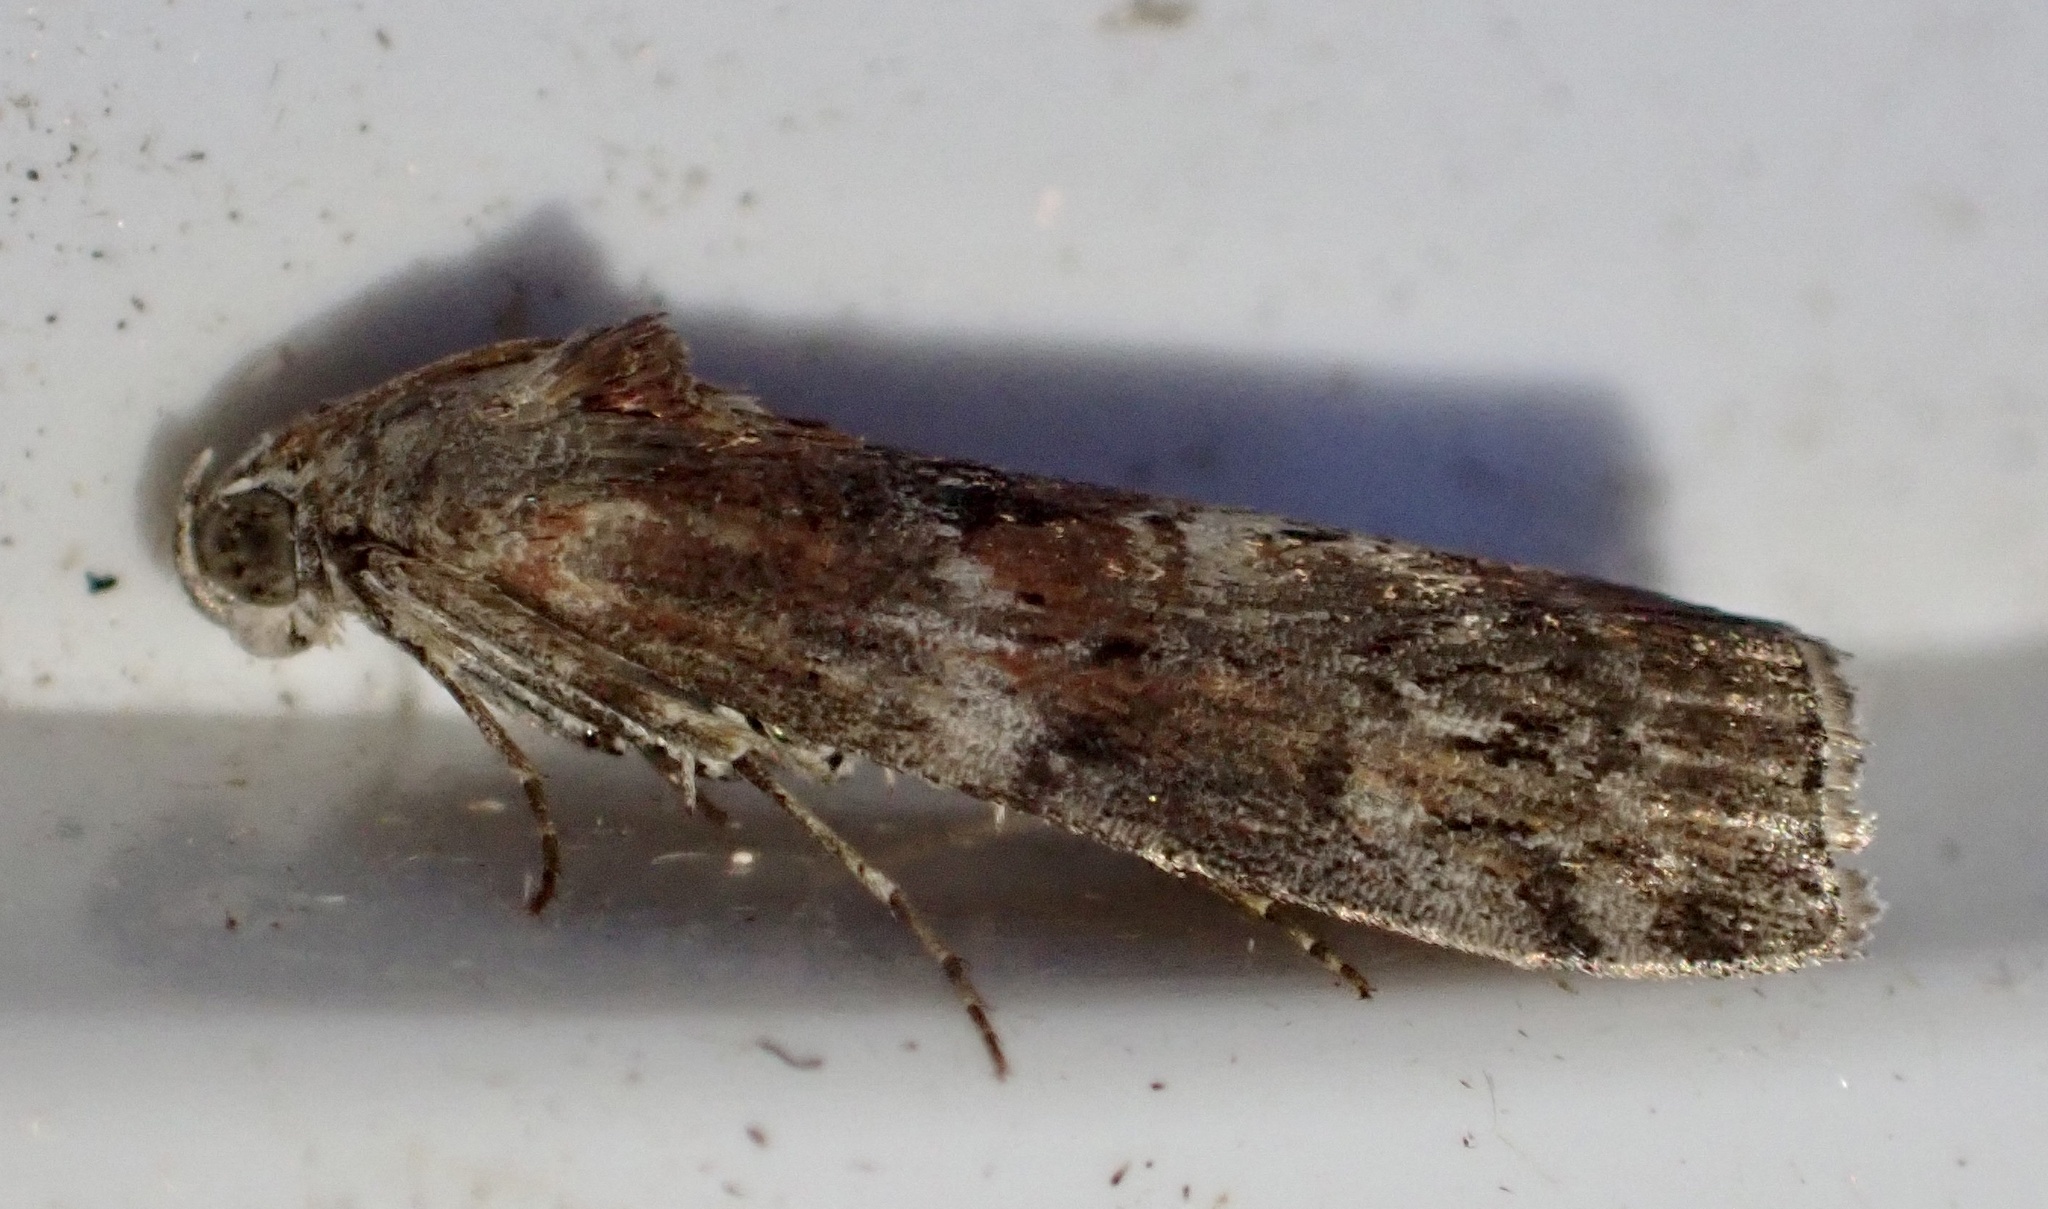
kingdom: Animalia
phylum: Arthropoda
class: Insecta
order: Lepidoptera
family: Pyralidae
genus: Phycita
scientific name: Phycita roborella
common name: Dotted oak knot-horn
